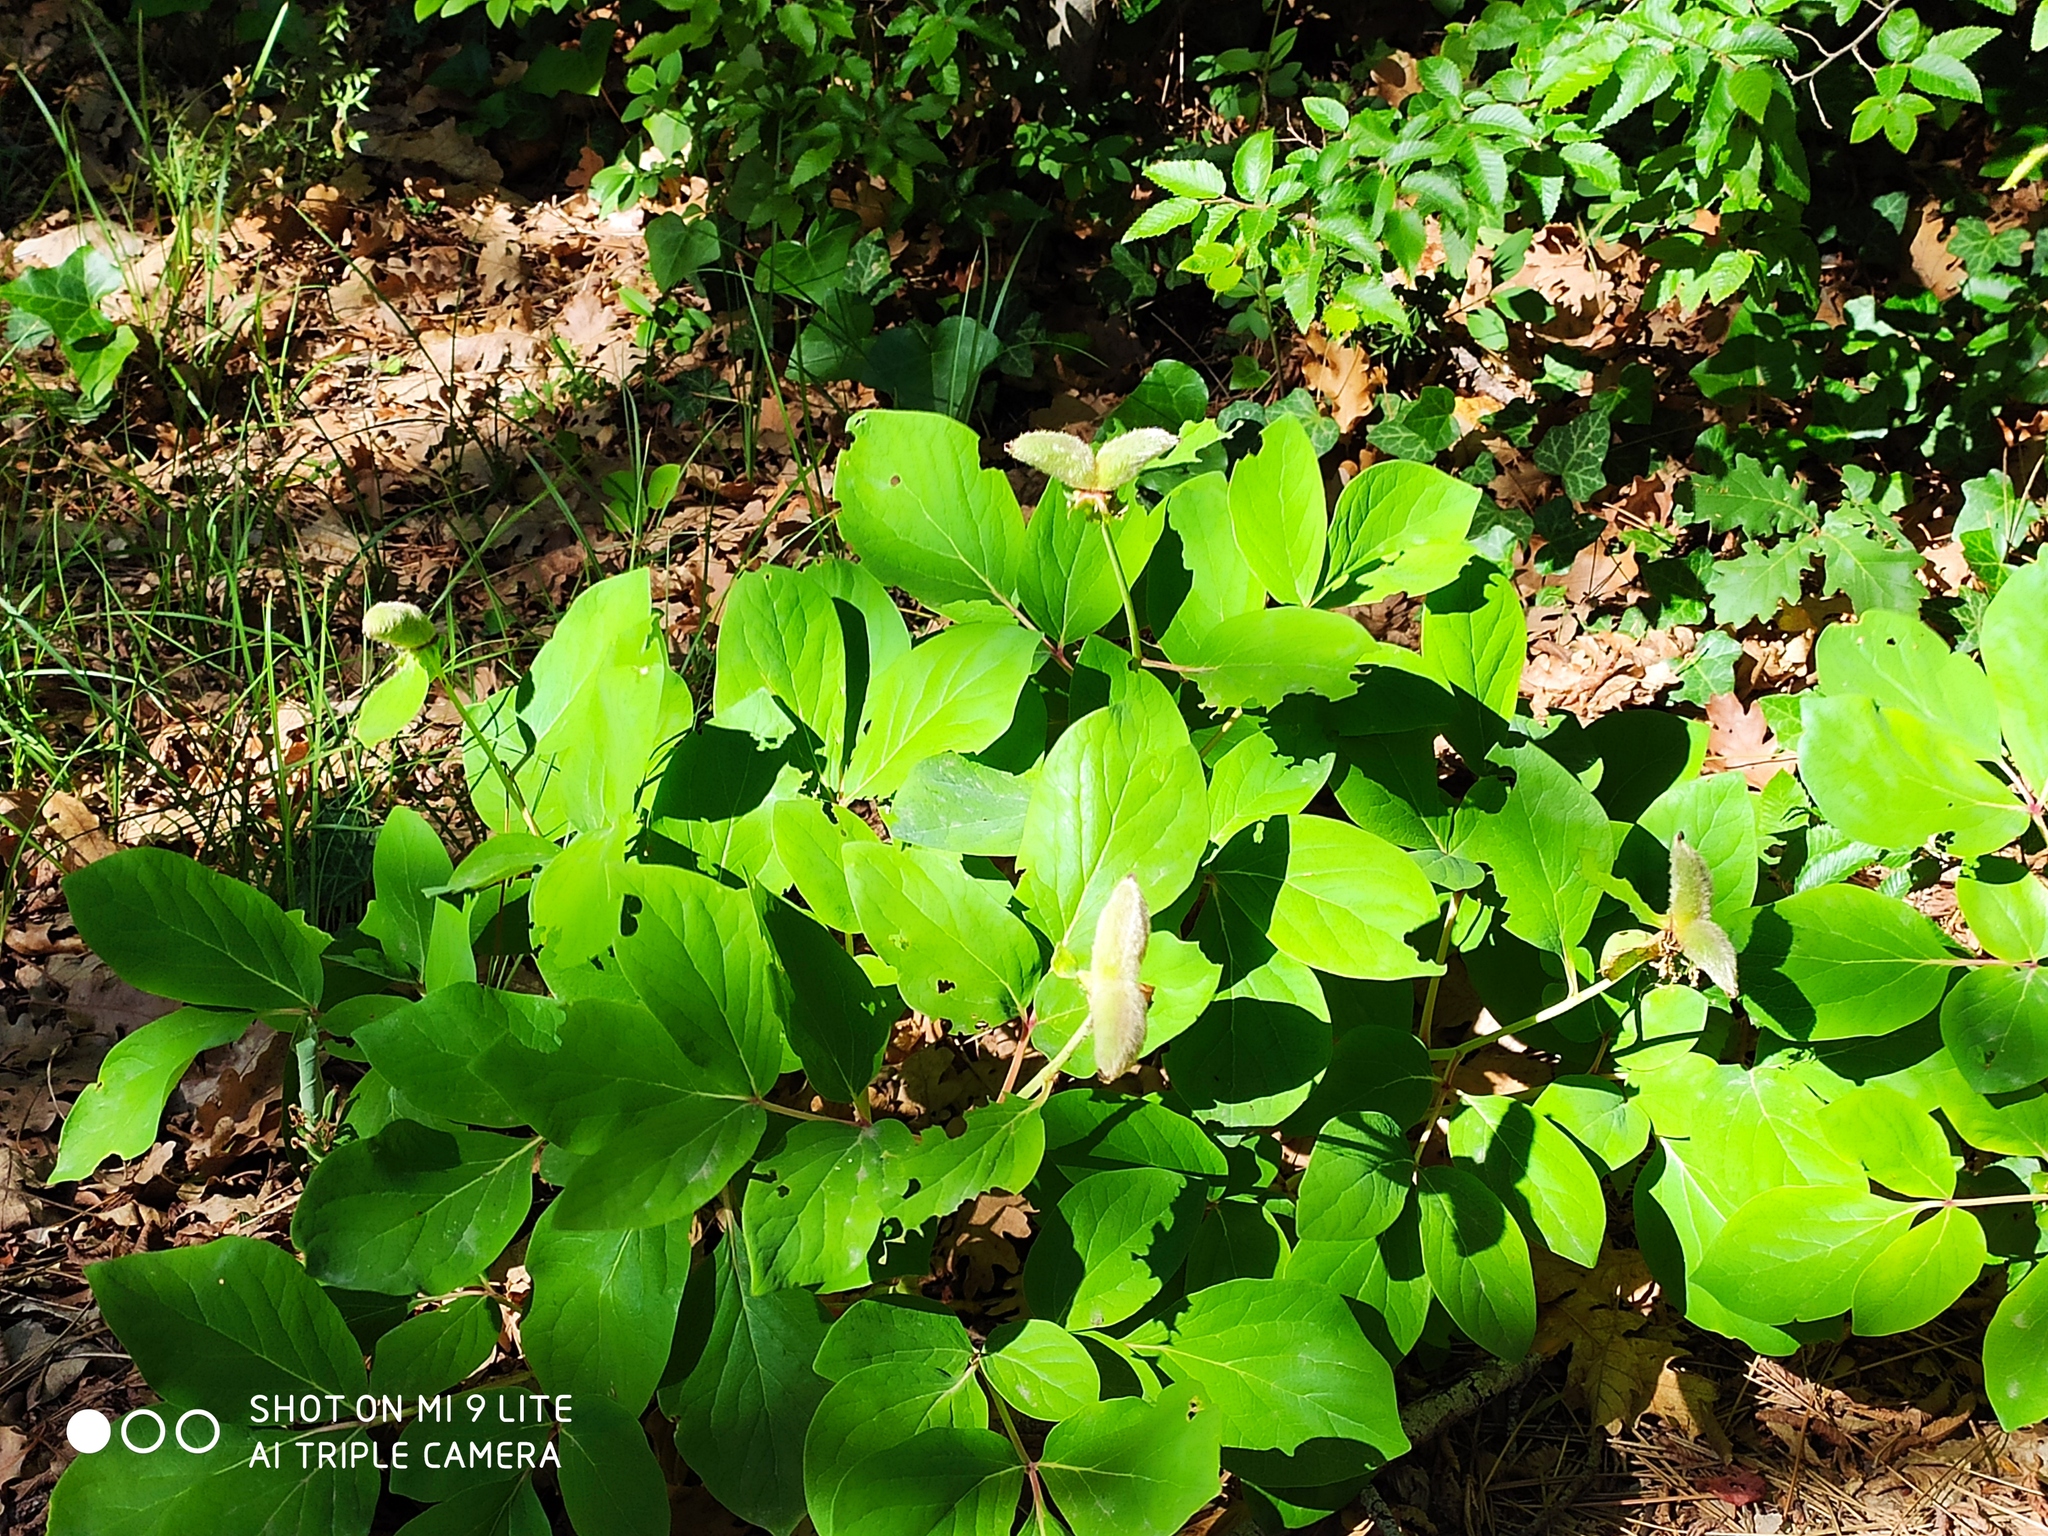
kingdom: Plantae
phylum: Tracheophyta
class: Magnoliopsida
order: Saxifragales
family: Paeoniaceae
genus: Paeonia
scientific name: Paeonia caucasica
